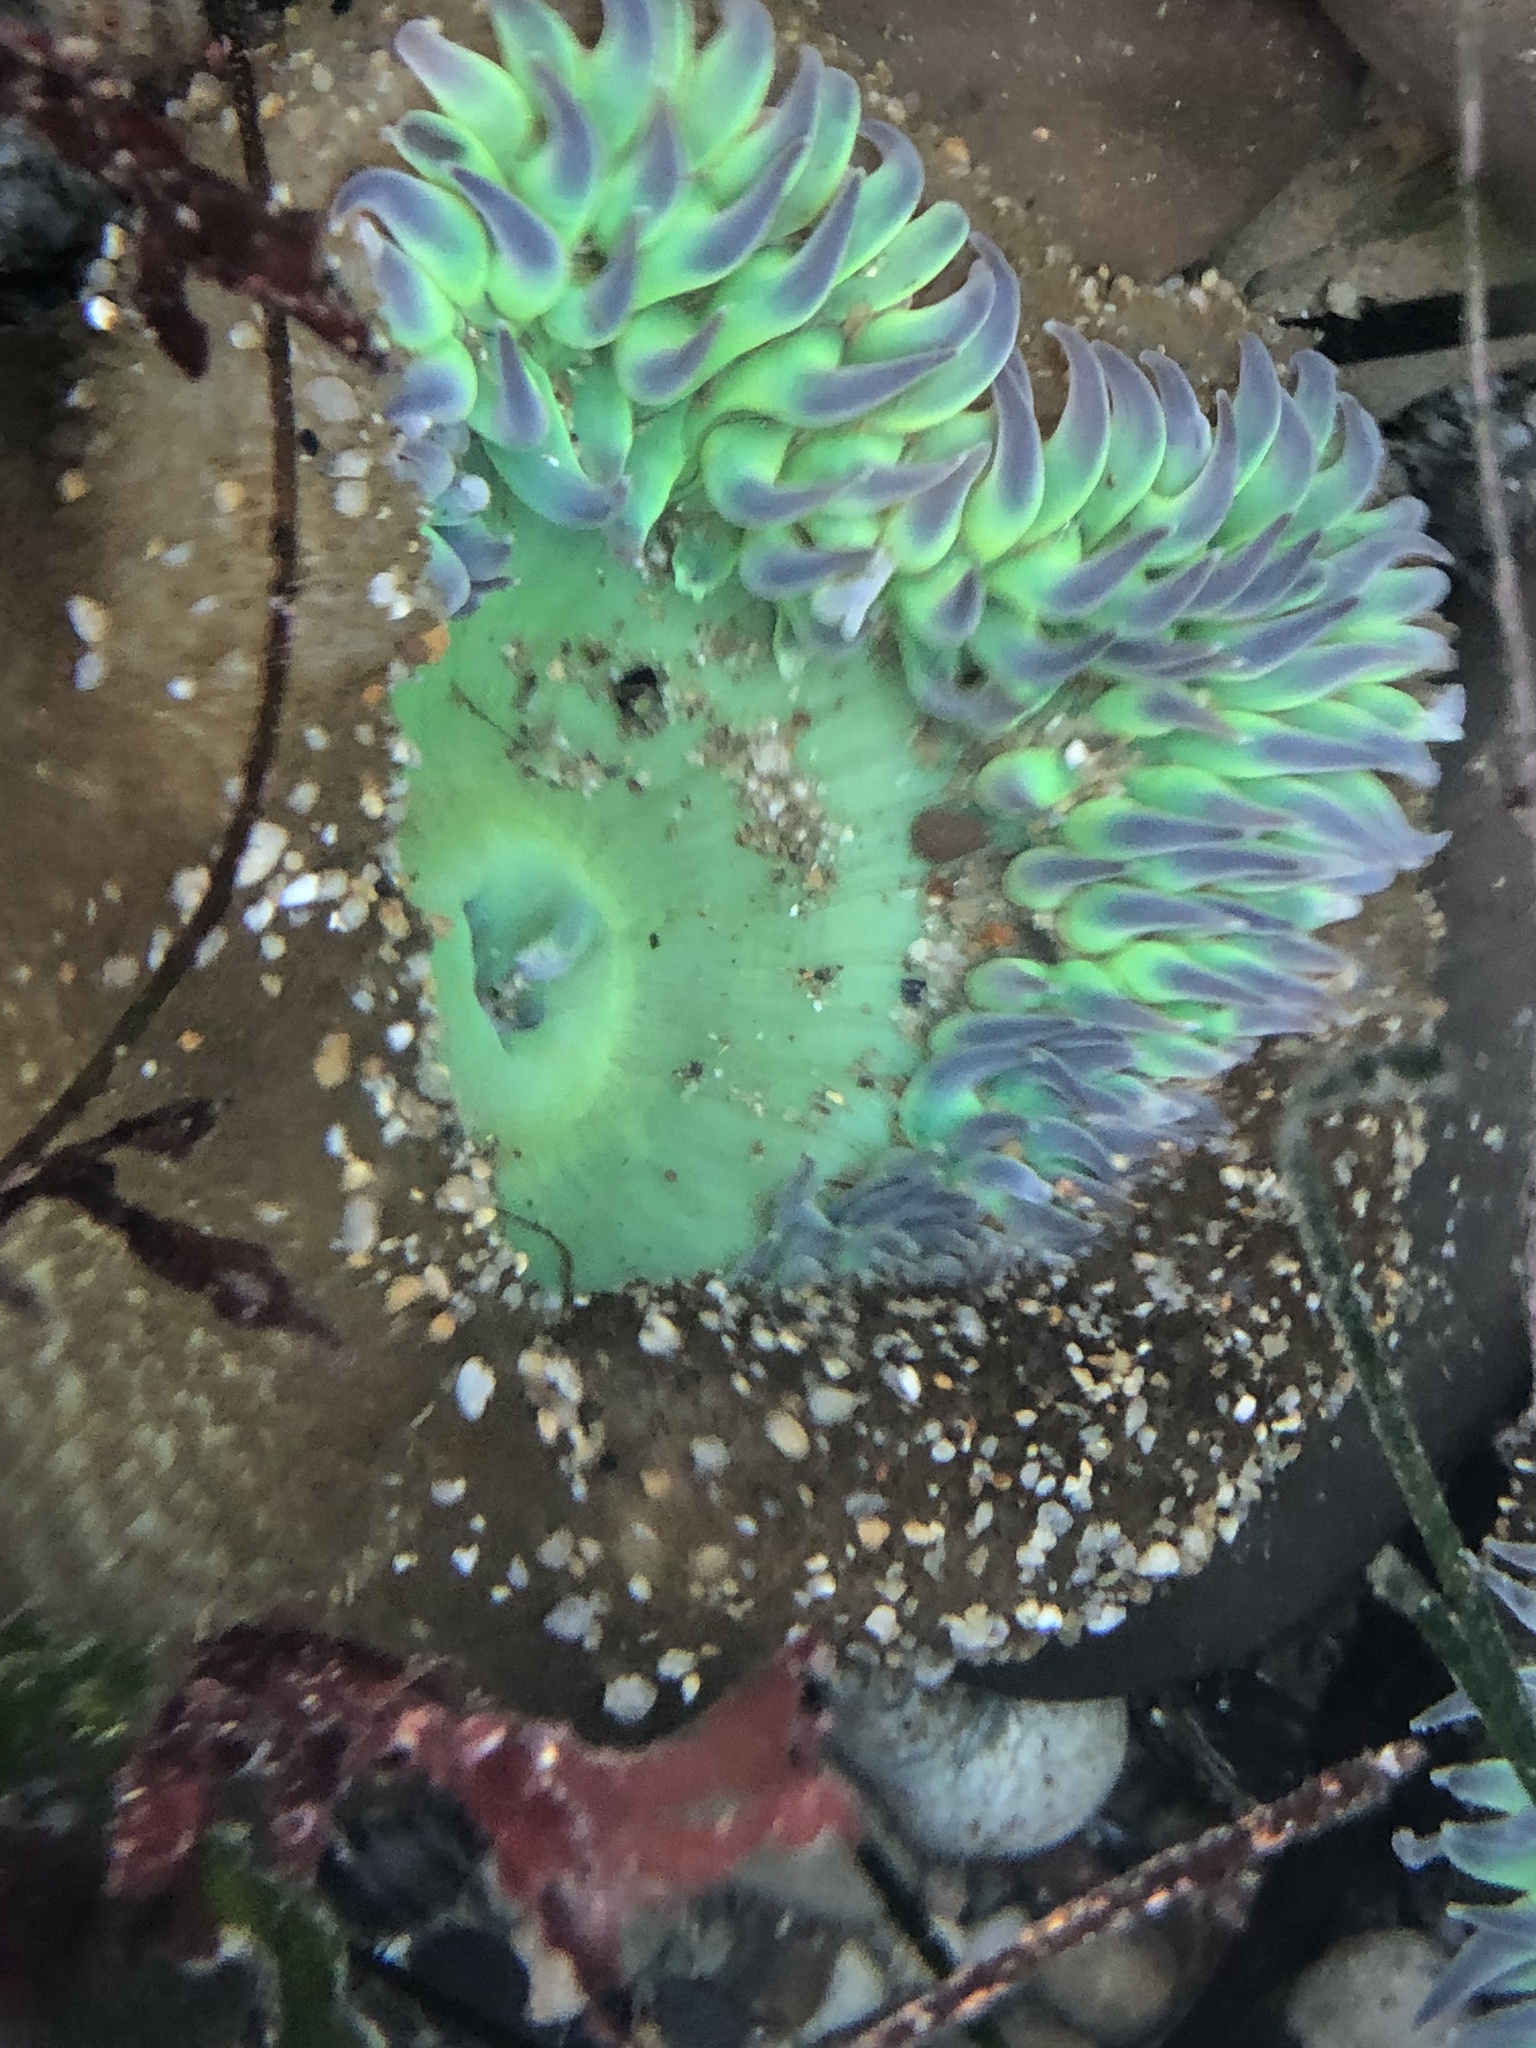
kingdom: Animalia
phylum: Cnidaria
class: Anthozoa
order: Actiniaria
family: Actiniidae
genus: Anthopleura
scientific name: Anthopleura xanthogrammica
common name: Giant green anemone
